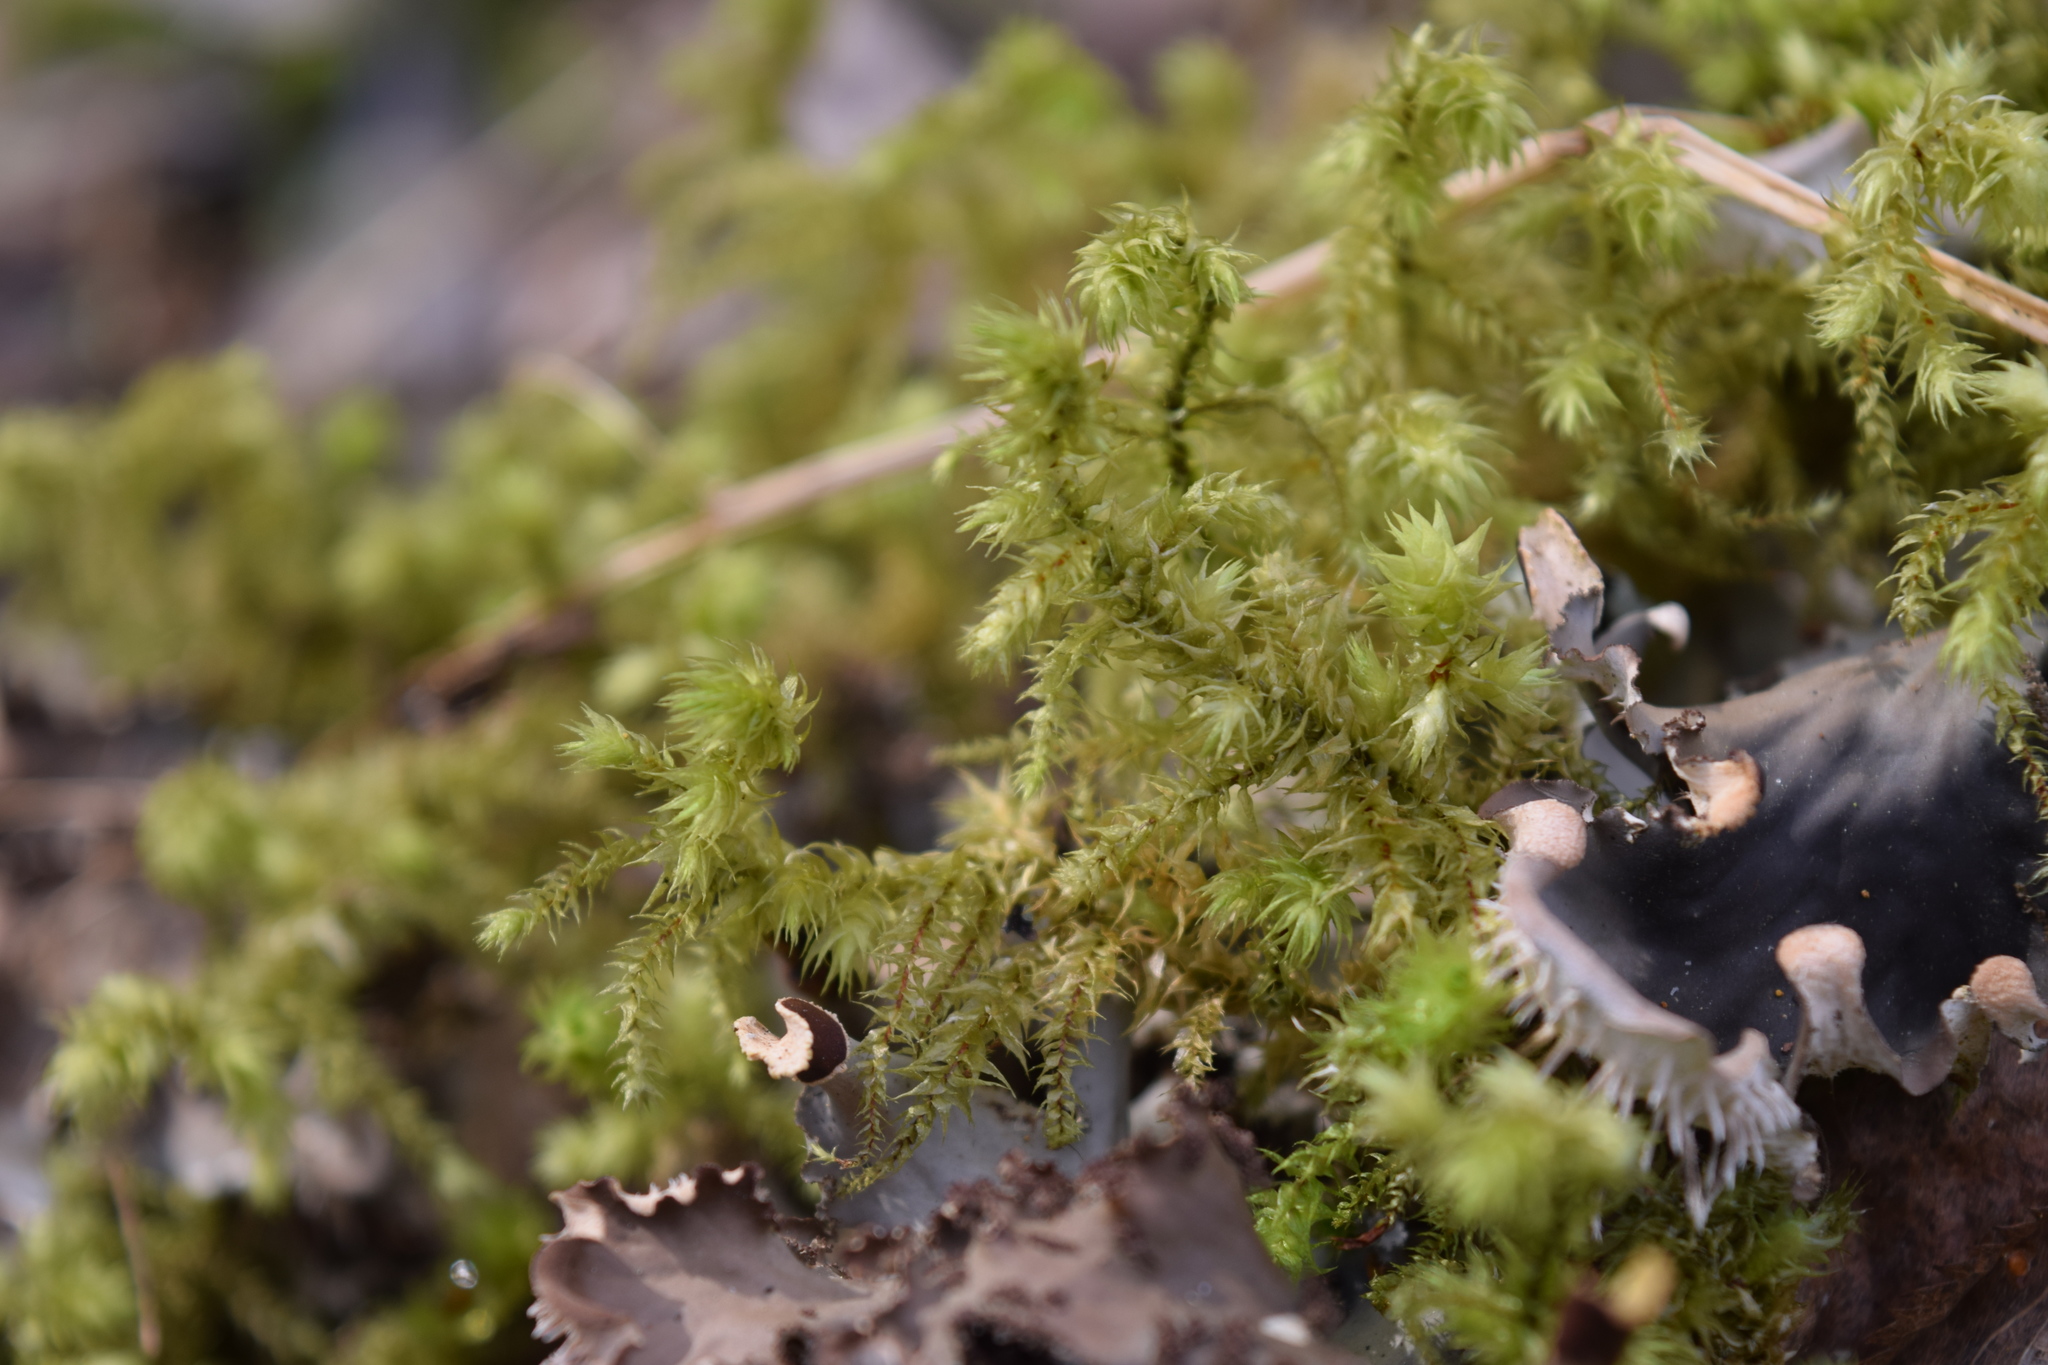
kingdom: Plantae
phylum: Bryophyta
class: Bryopsida
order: Hypnales
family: Hylocomiaceae
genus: Hylocomiadelphus
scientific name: Hylocomiadelphus triquetrus
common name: Rough goose neck moss
